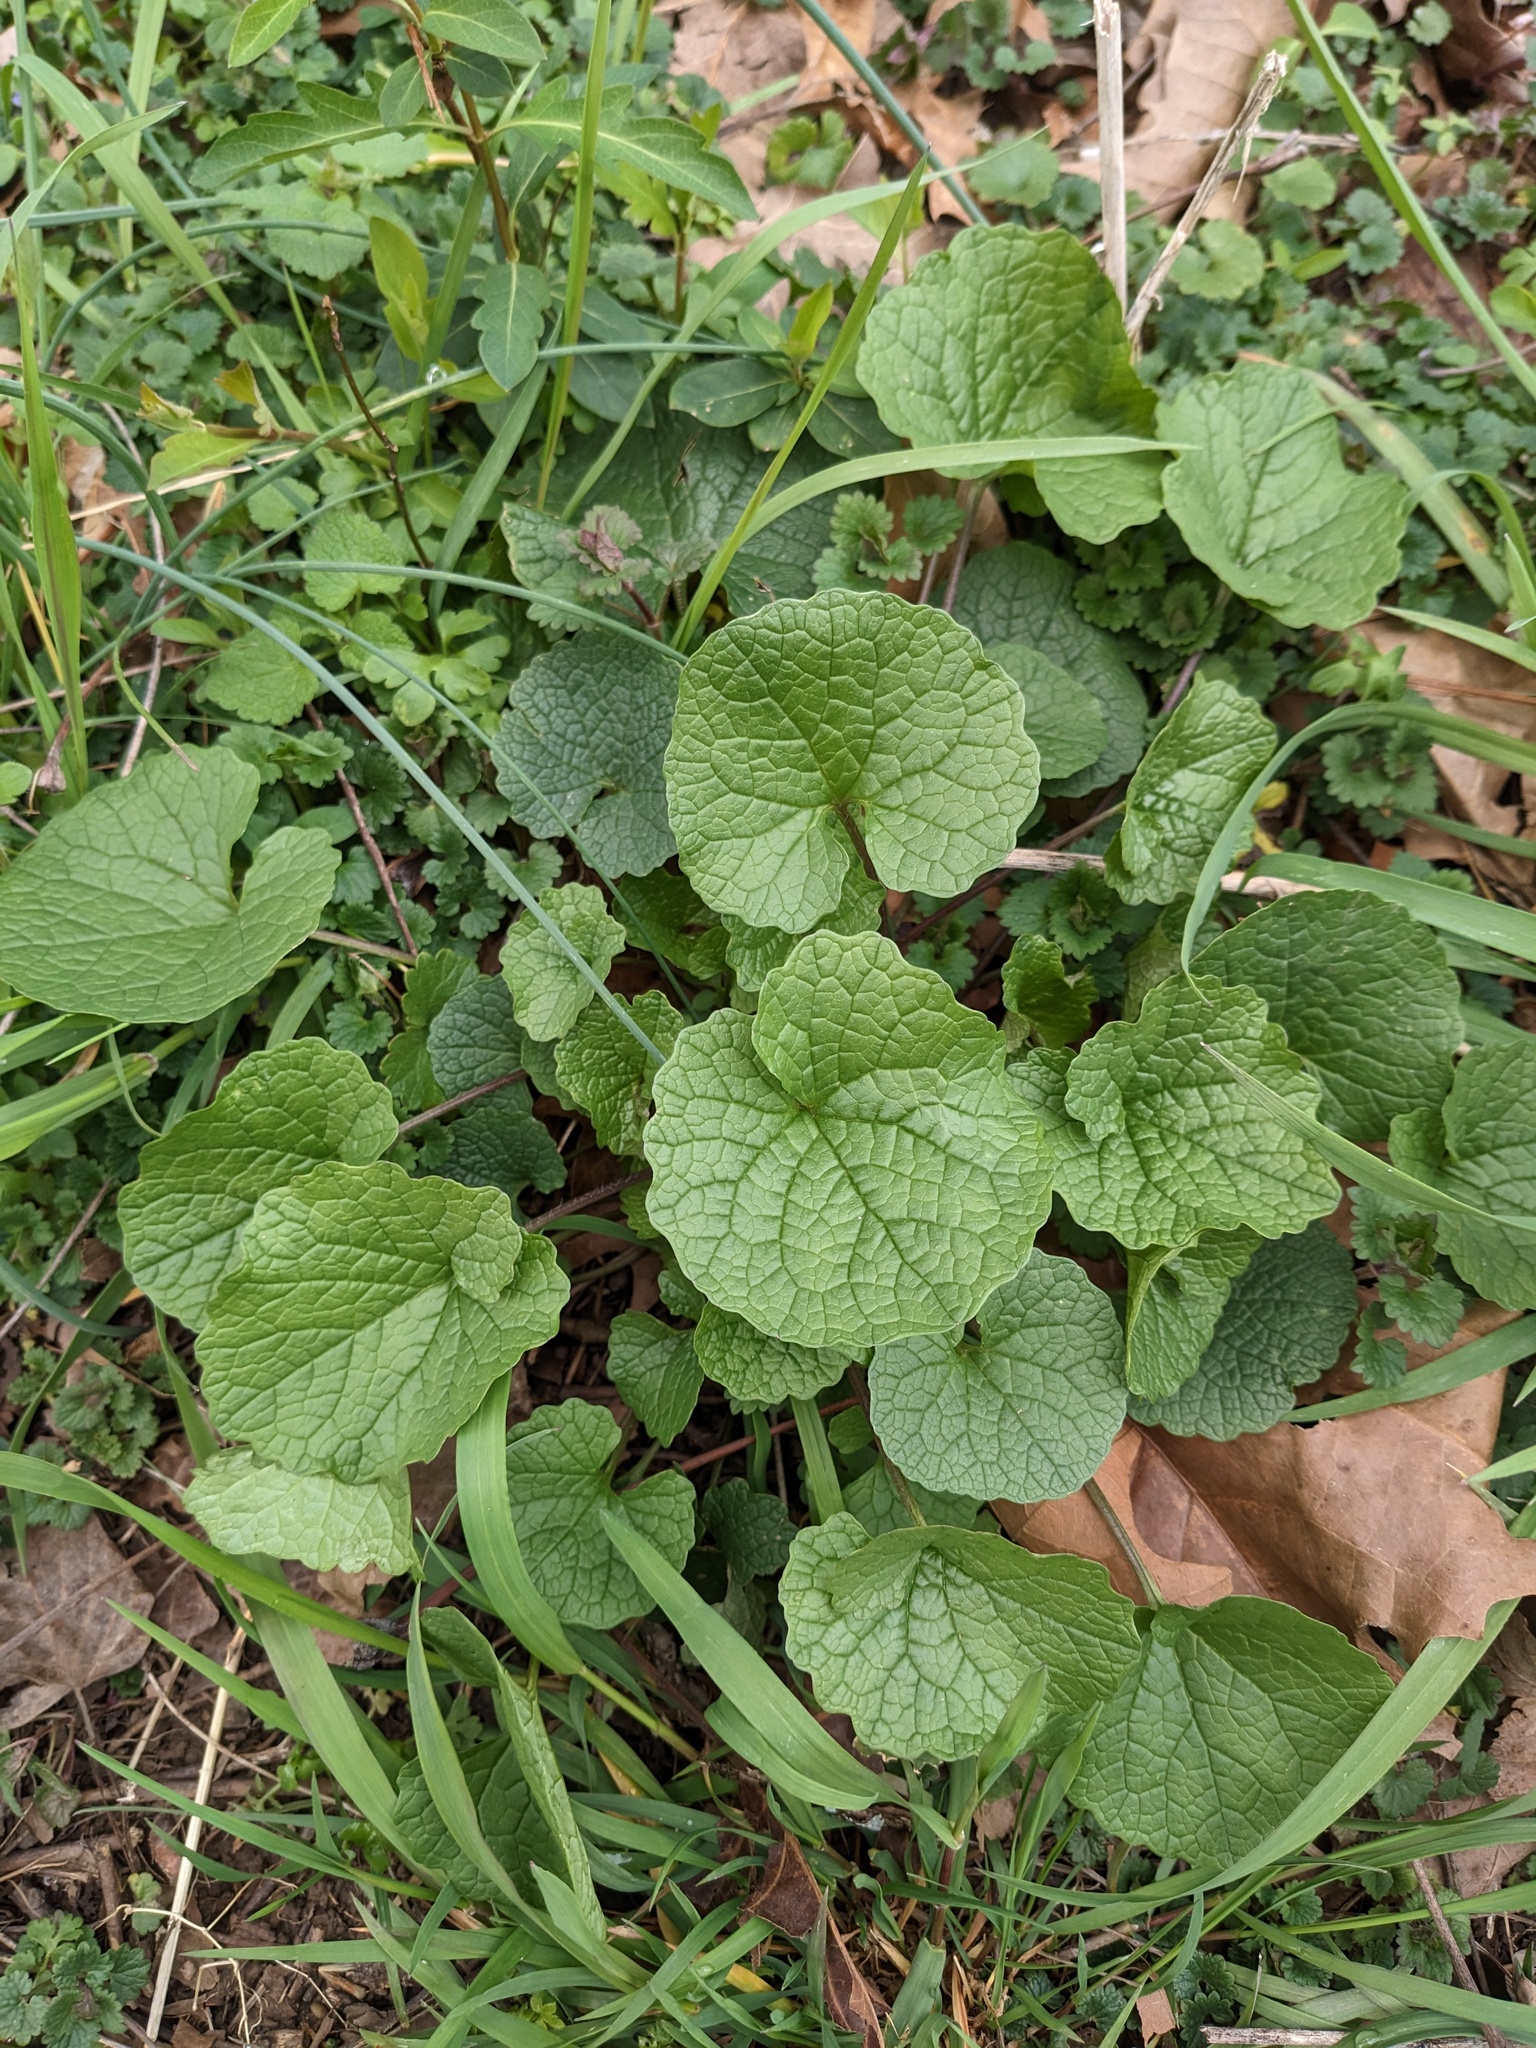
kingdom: Plantae
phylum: Tracheophyta
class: Magnoliopsida
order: Brassicales
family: Brassicaceae
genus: Alliaria
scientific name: Alliaria petiolata
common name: Garlic mustard
